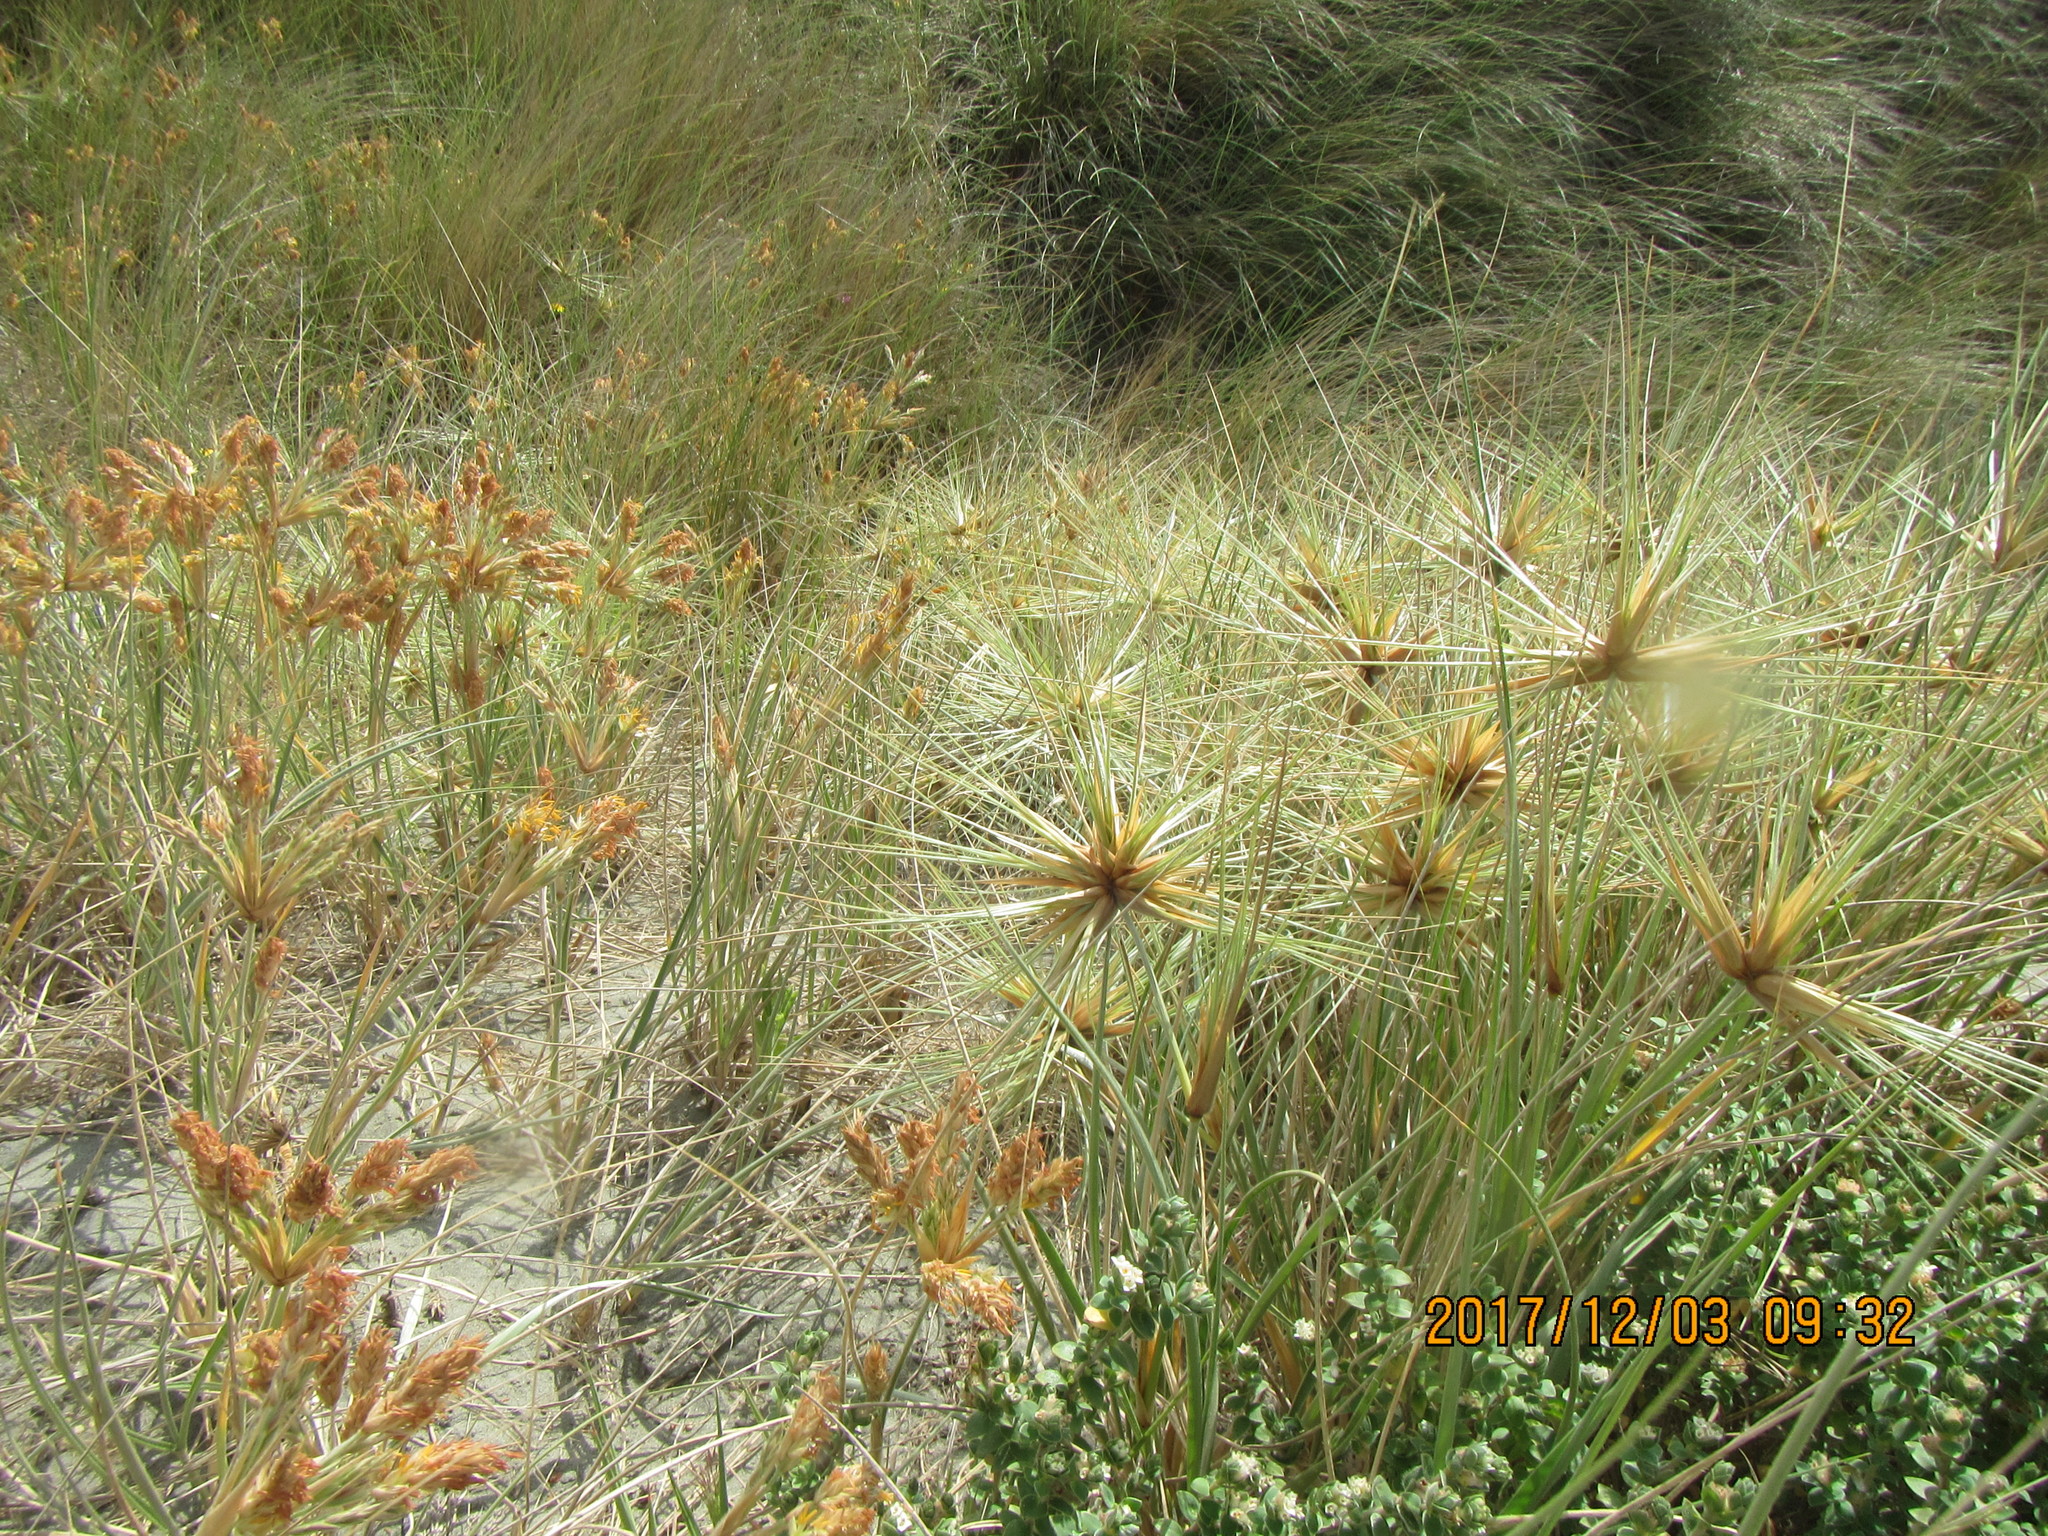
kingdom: Plantae
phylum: Tracheophyta
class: Liliopsida
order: Poales
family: Poaceae
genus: Spinifex
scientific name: Spinifex sericeus
